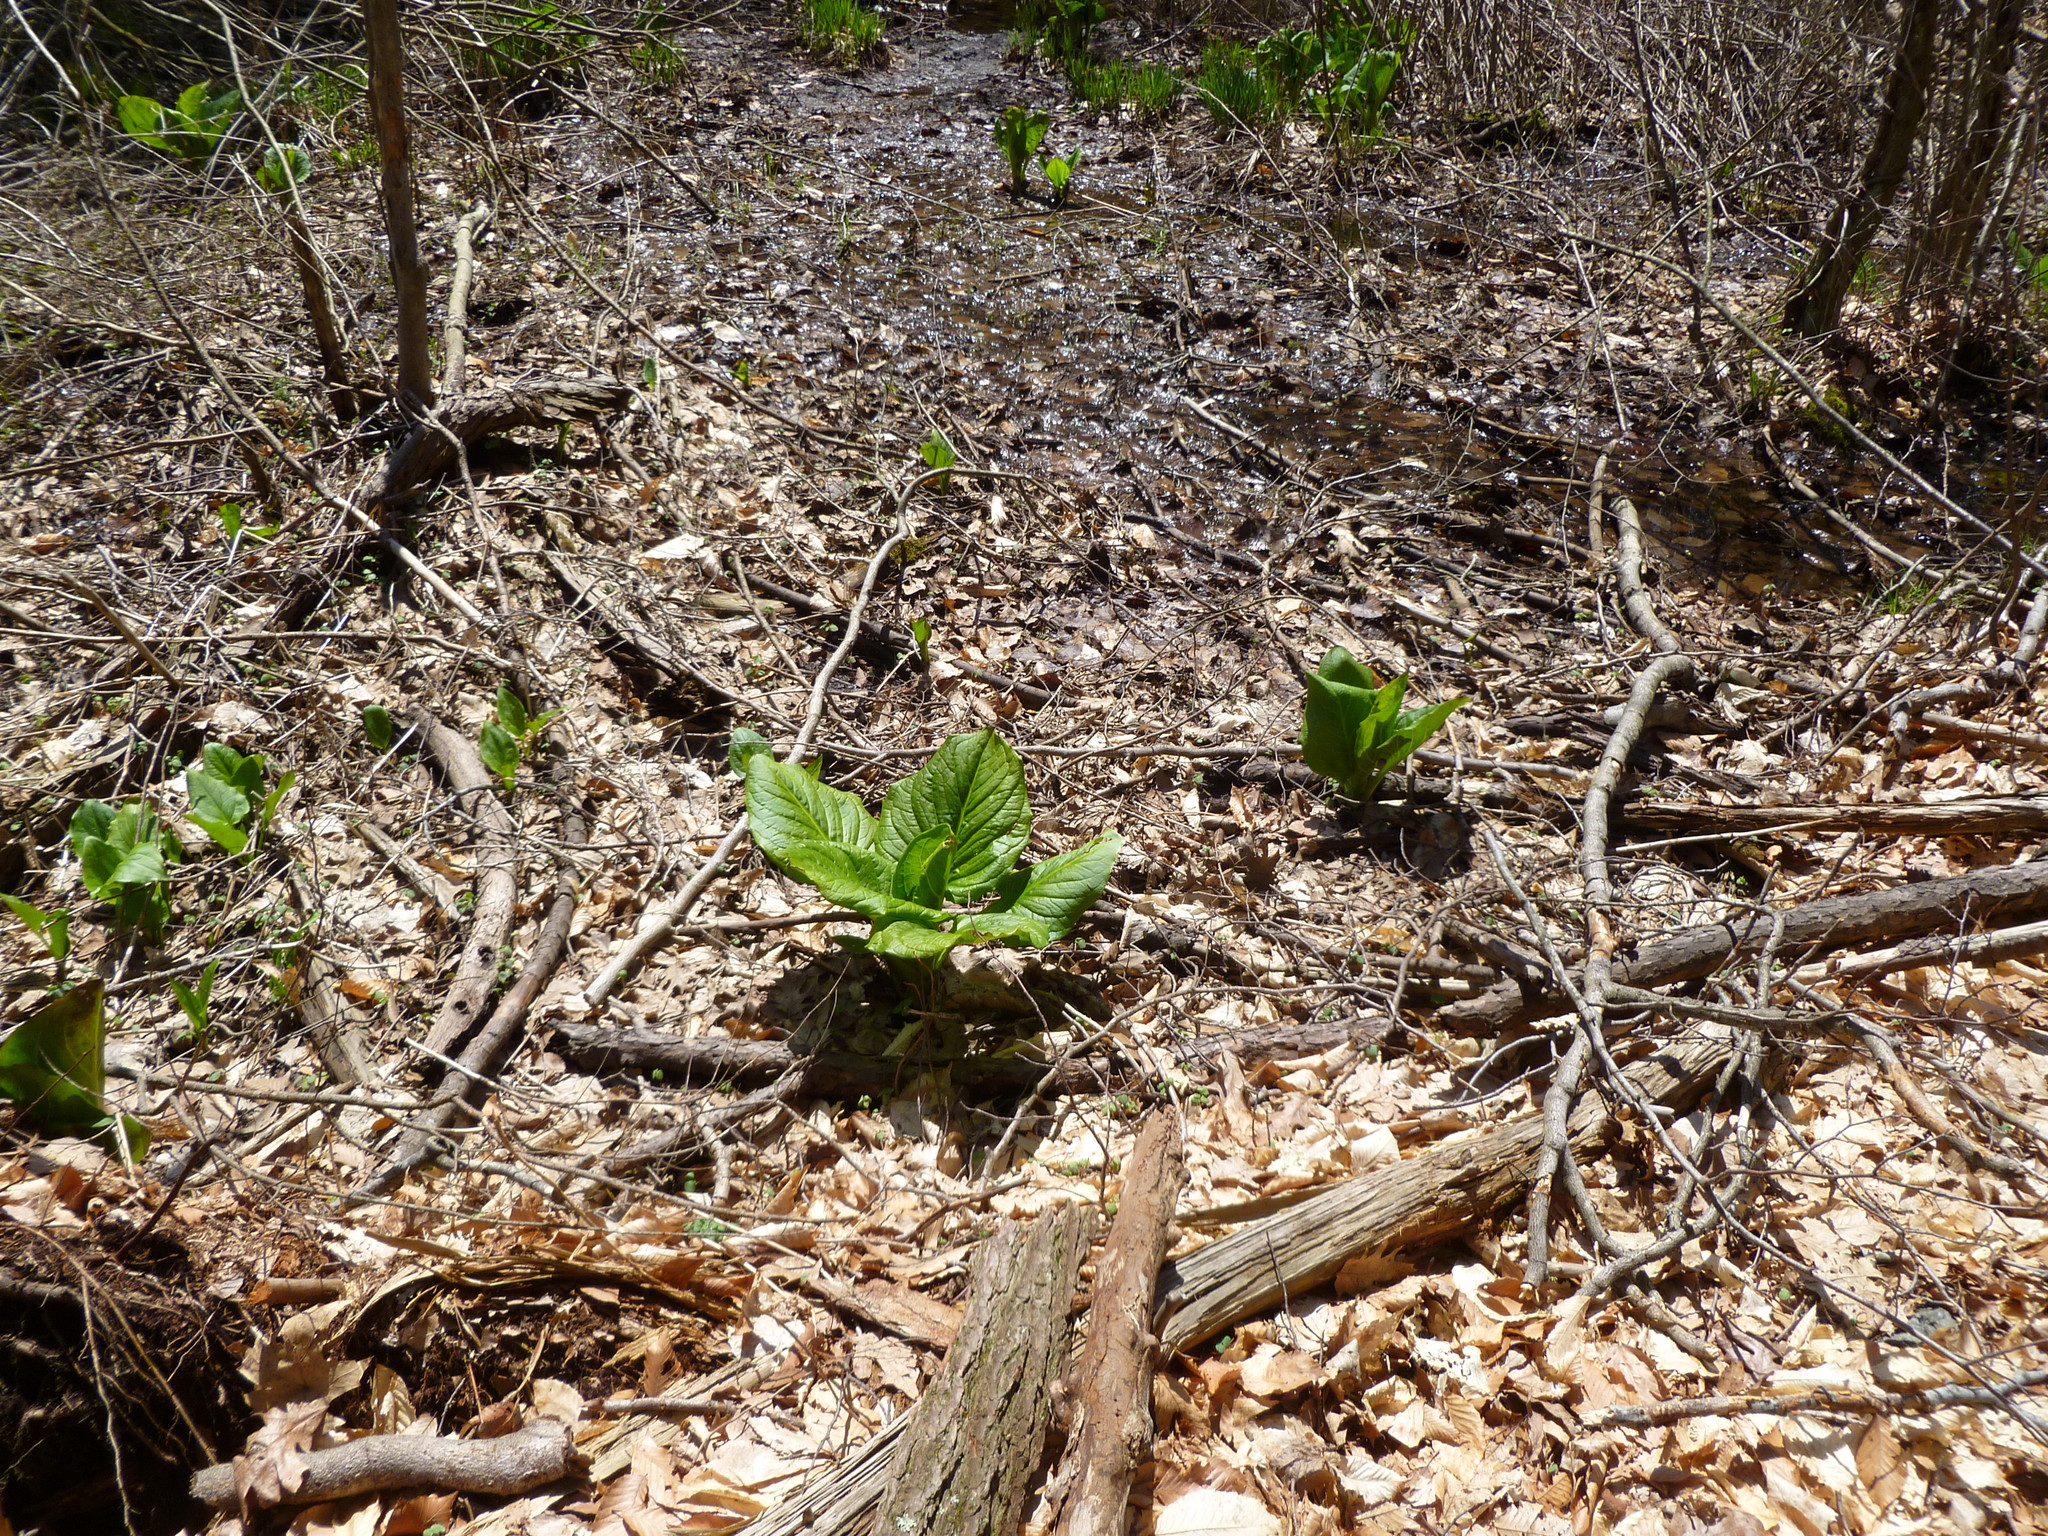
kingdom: Plantae
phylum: Tracheophyta
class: Liliopsida
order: Alismatales
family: Araceae
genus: Symplocarpus
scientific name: Symplocarpus foetidus
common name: Eastern skunk cabbage
